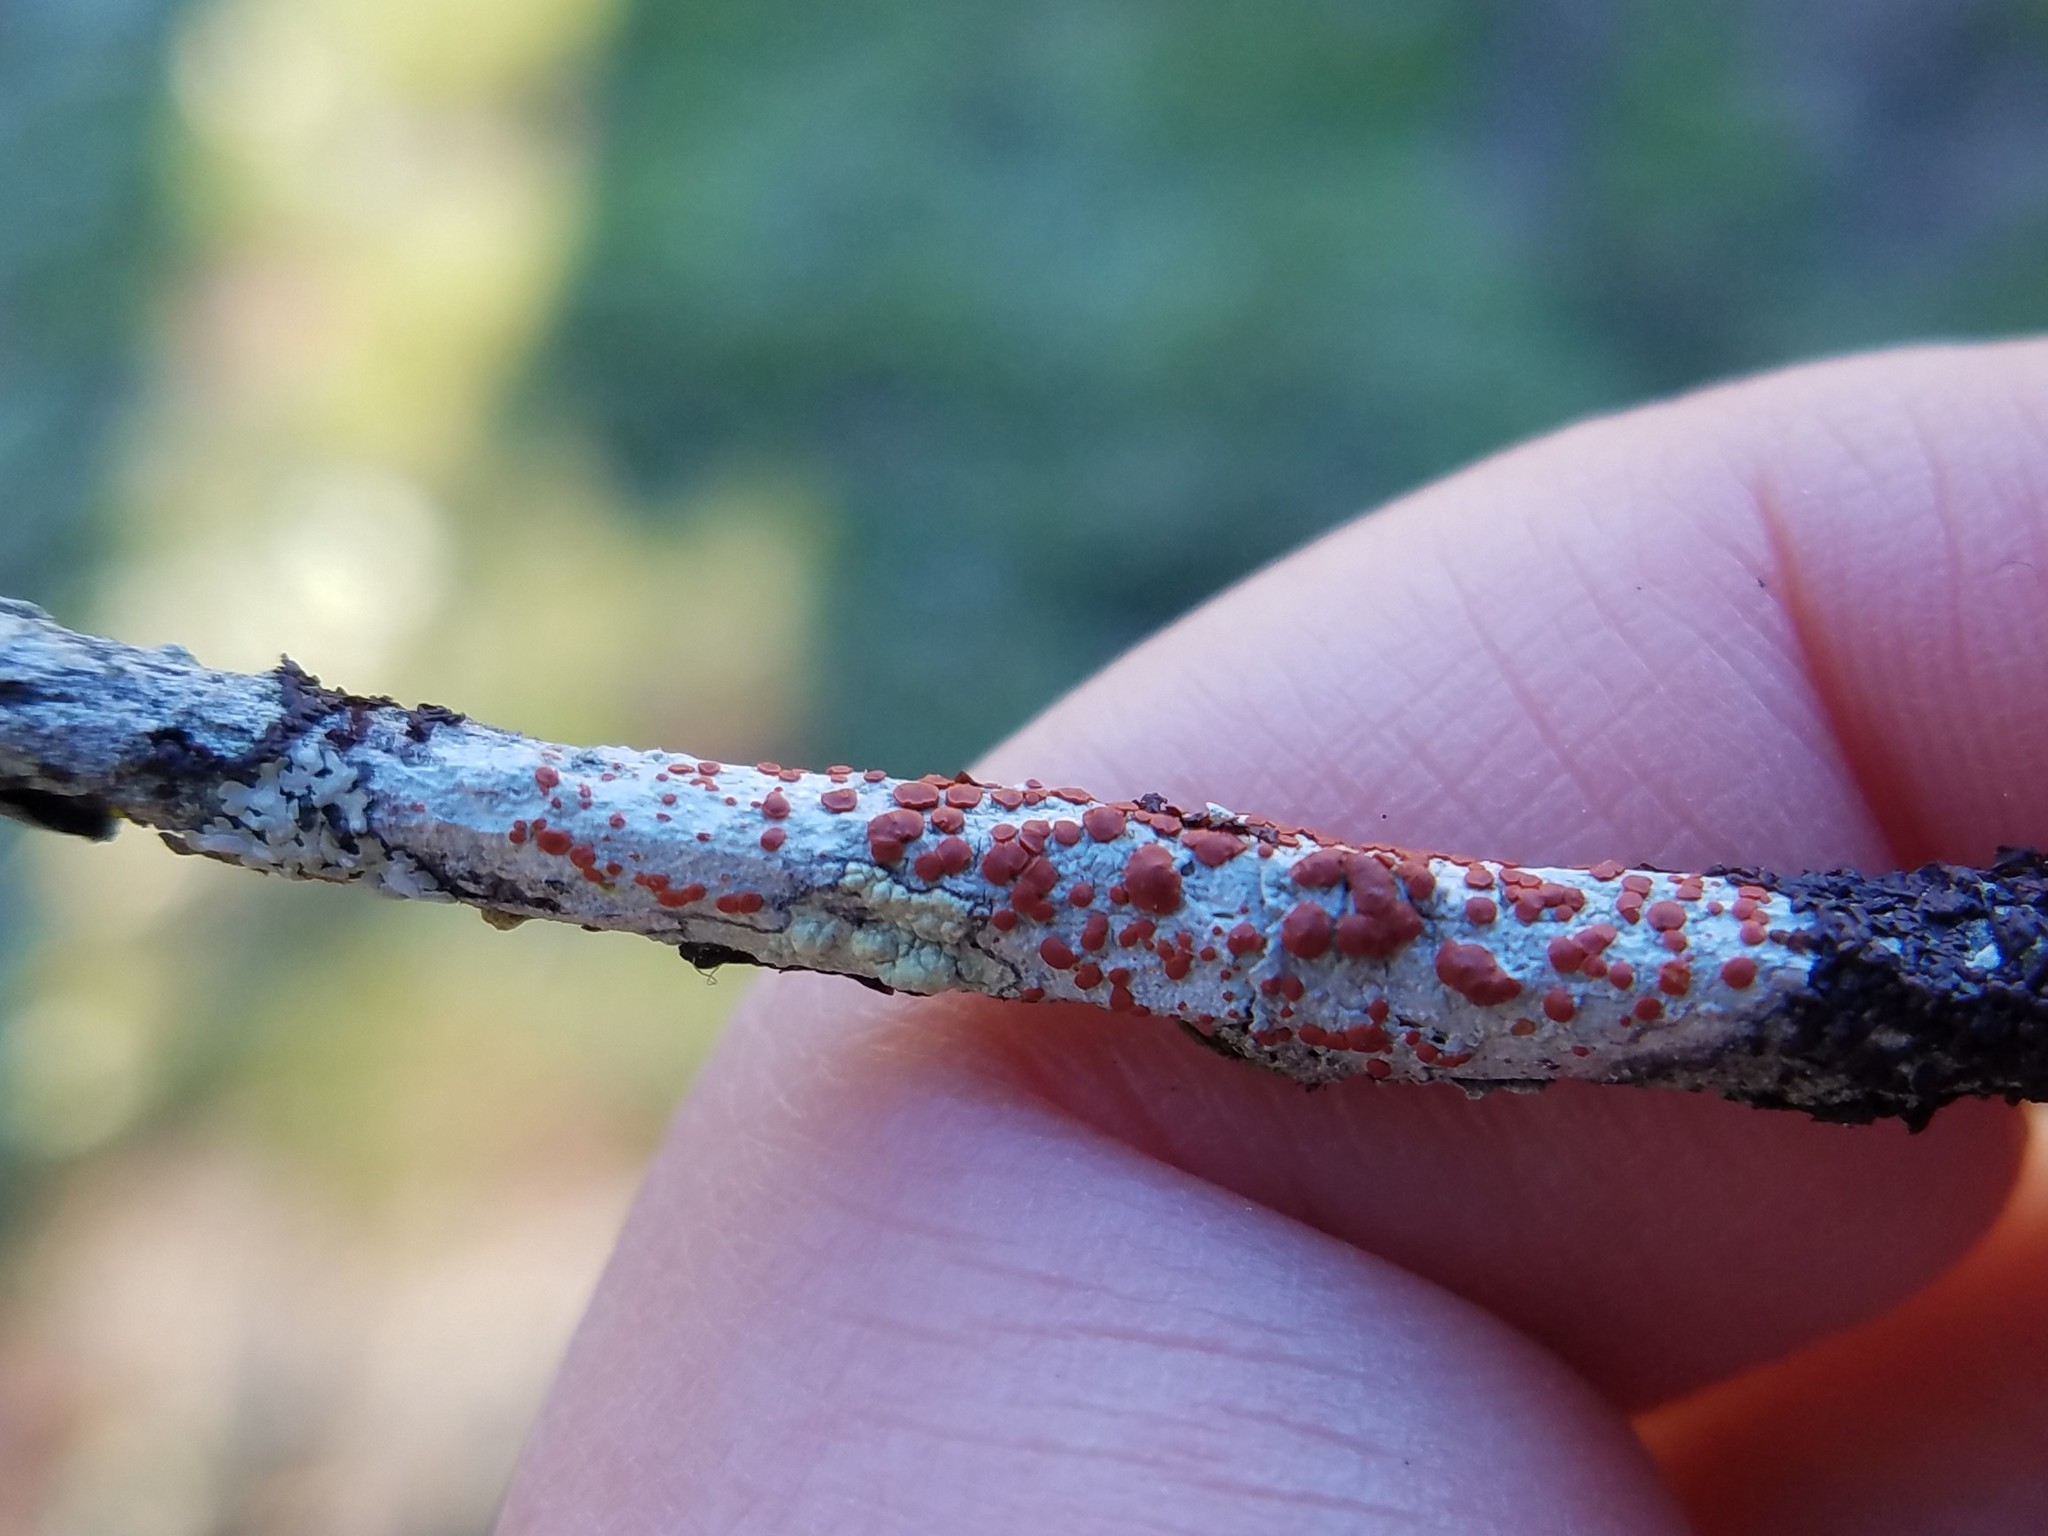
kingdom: Fungi
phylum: Ascomycota
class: Lecanoromycetes
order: Lecanorales
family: Ramboldiaceae
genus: Ramboldia
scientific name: Ramboldia russula
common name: Red heads
